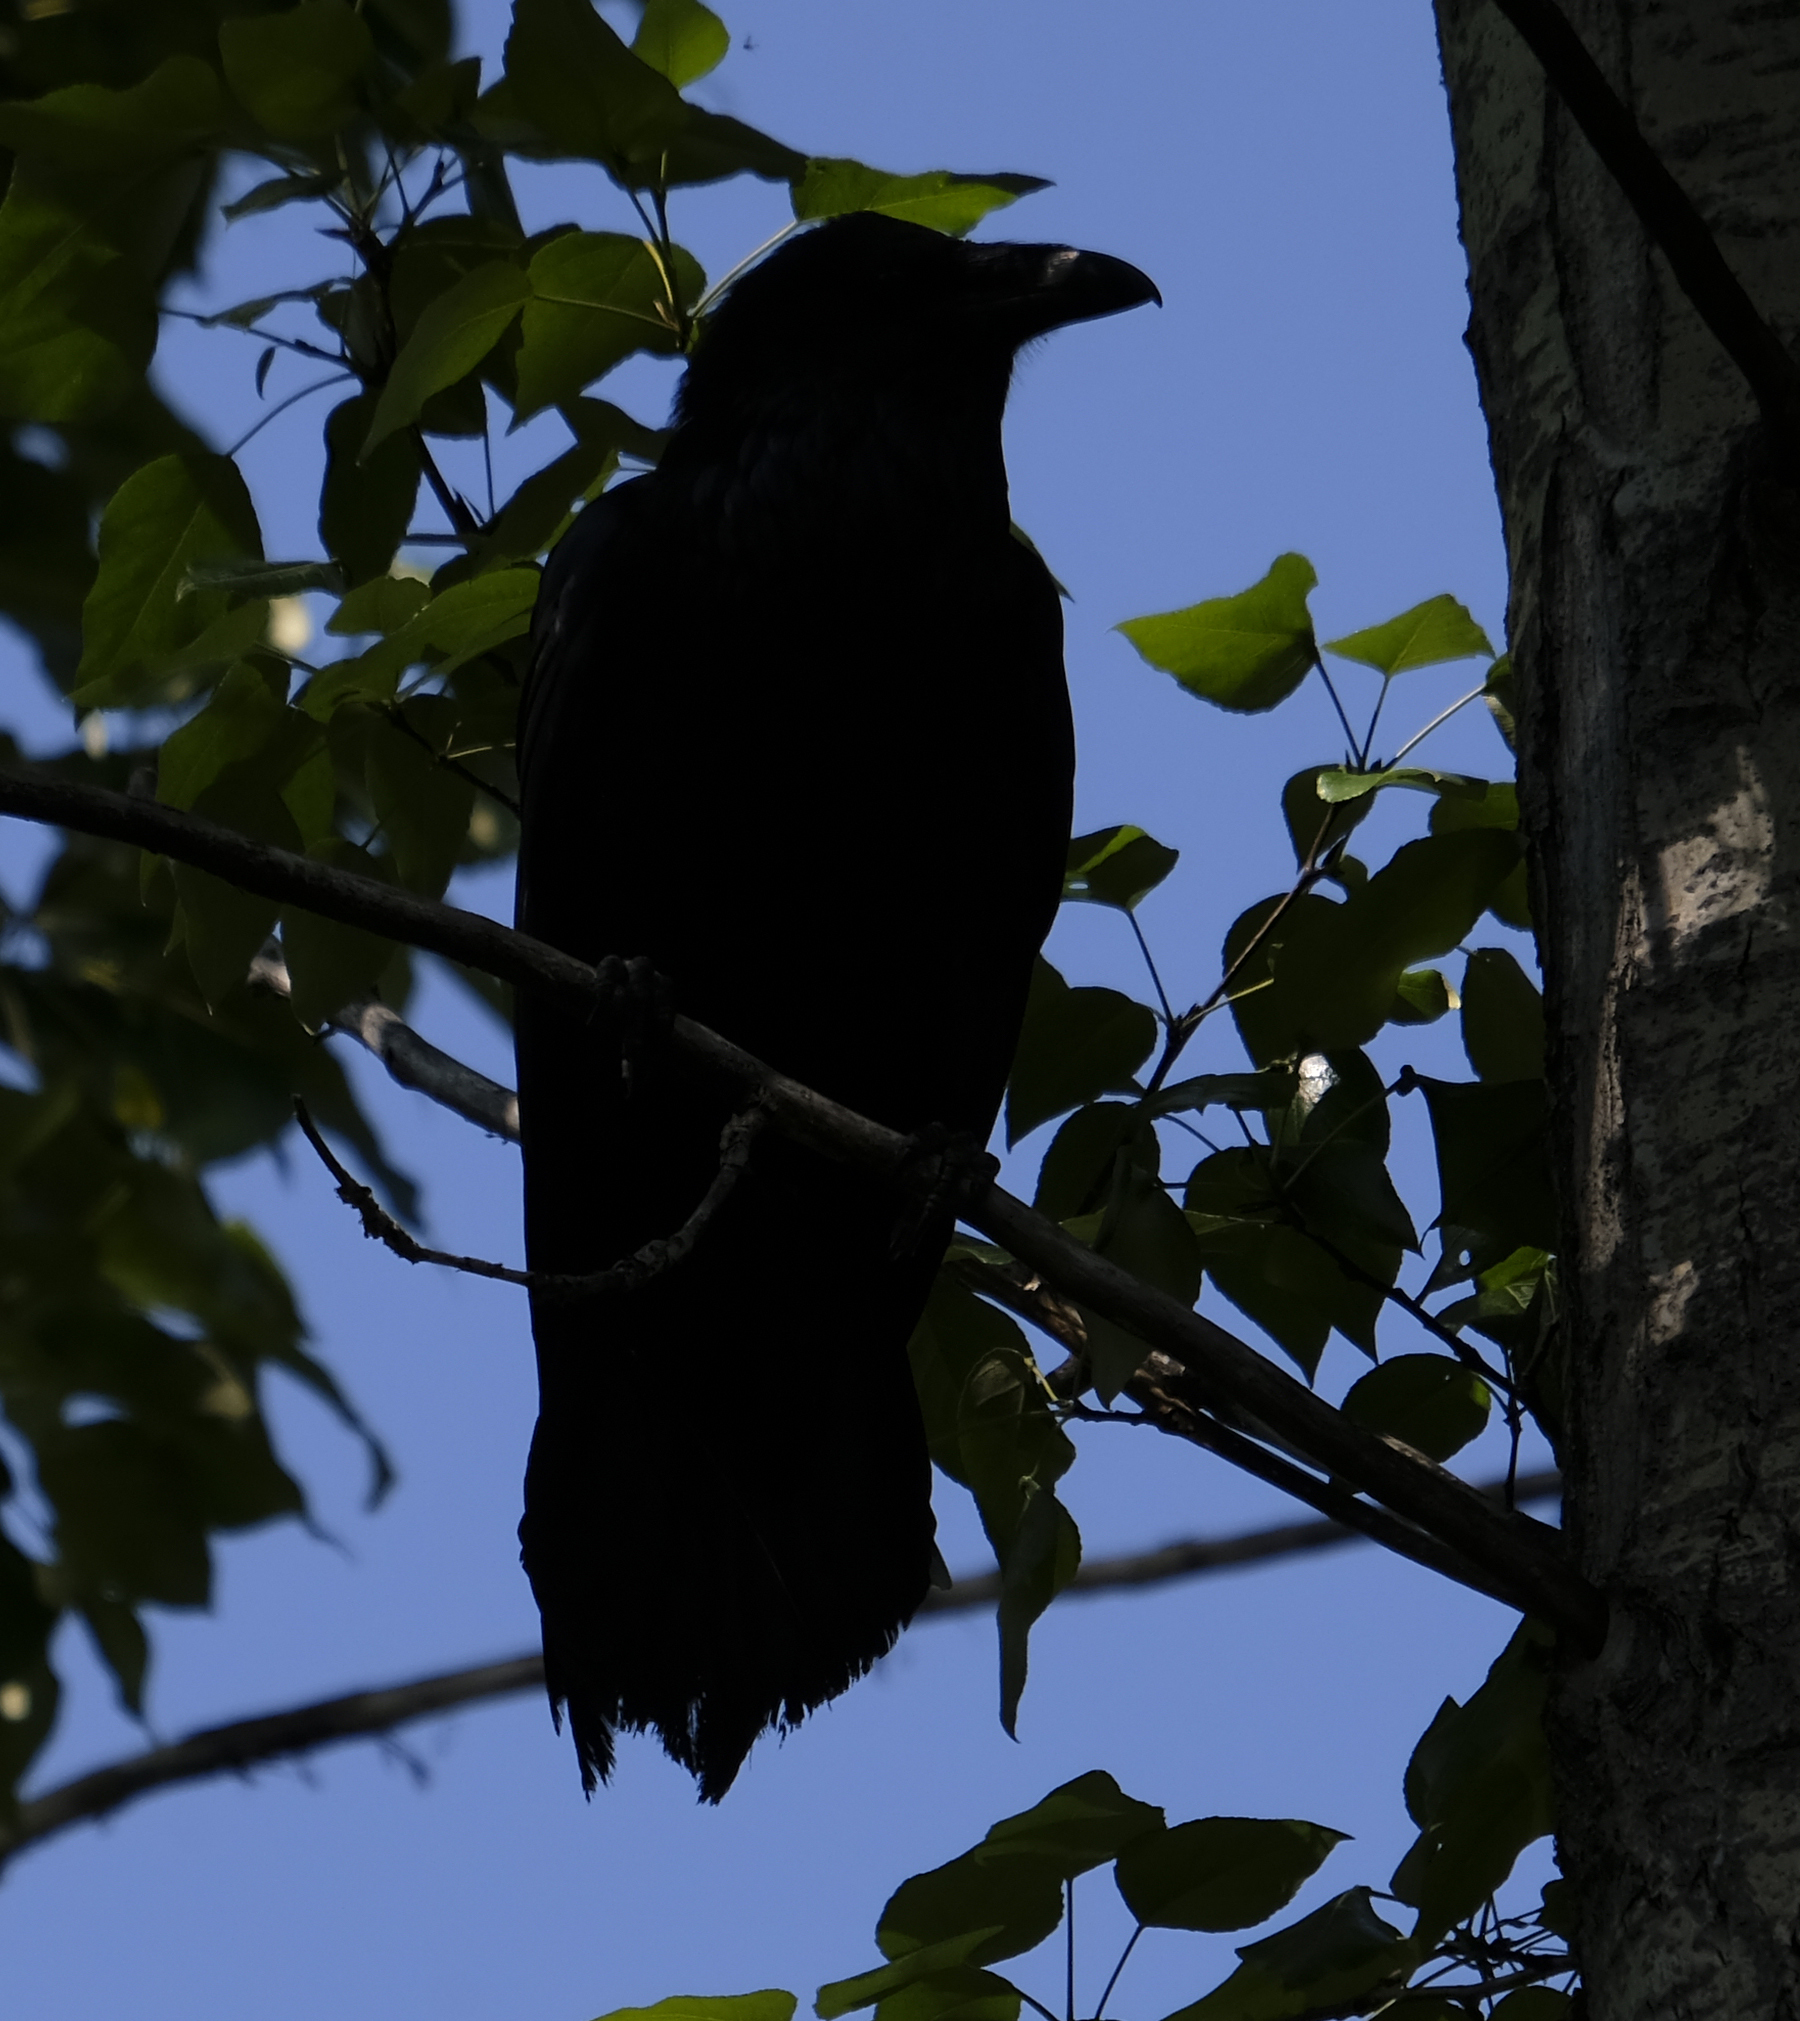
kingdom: Animalia
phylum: Chordata
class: Aves
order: Passeriformes
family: Corvidae
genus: Corvus
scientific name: Corvus corax
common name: Common raven
